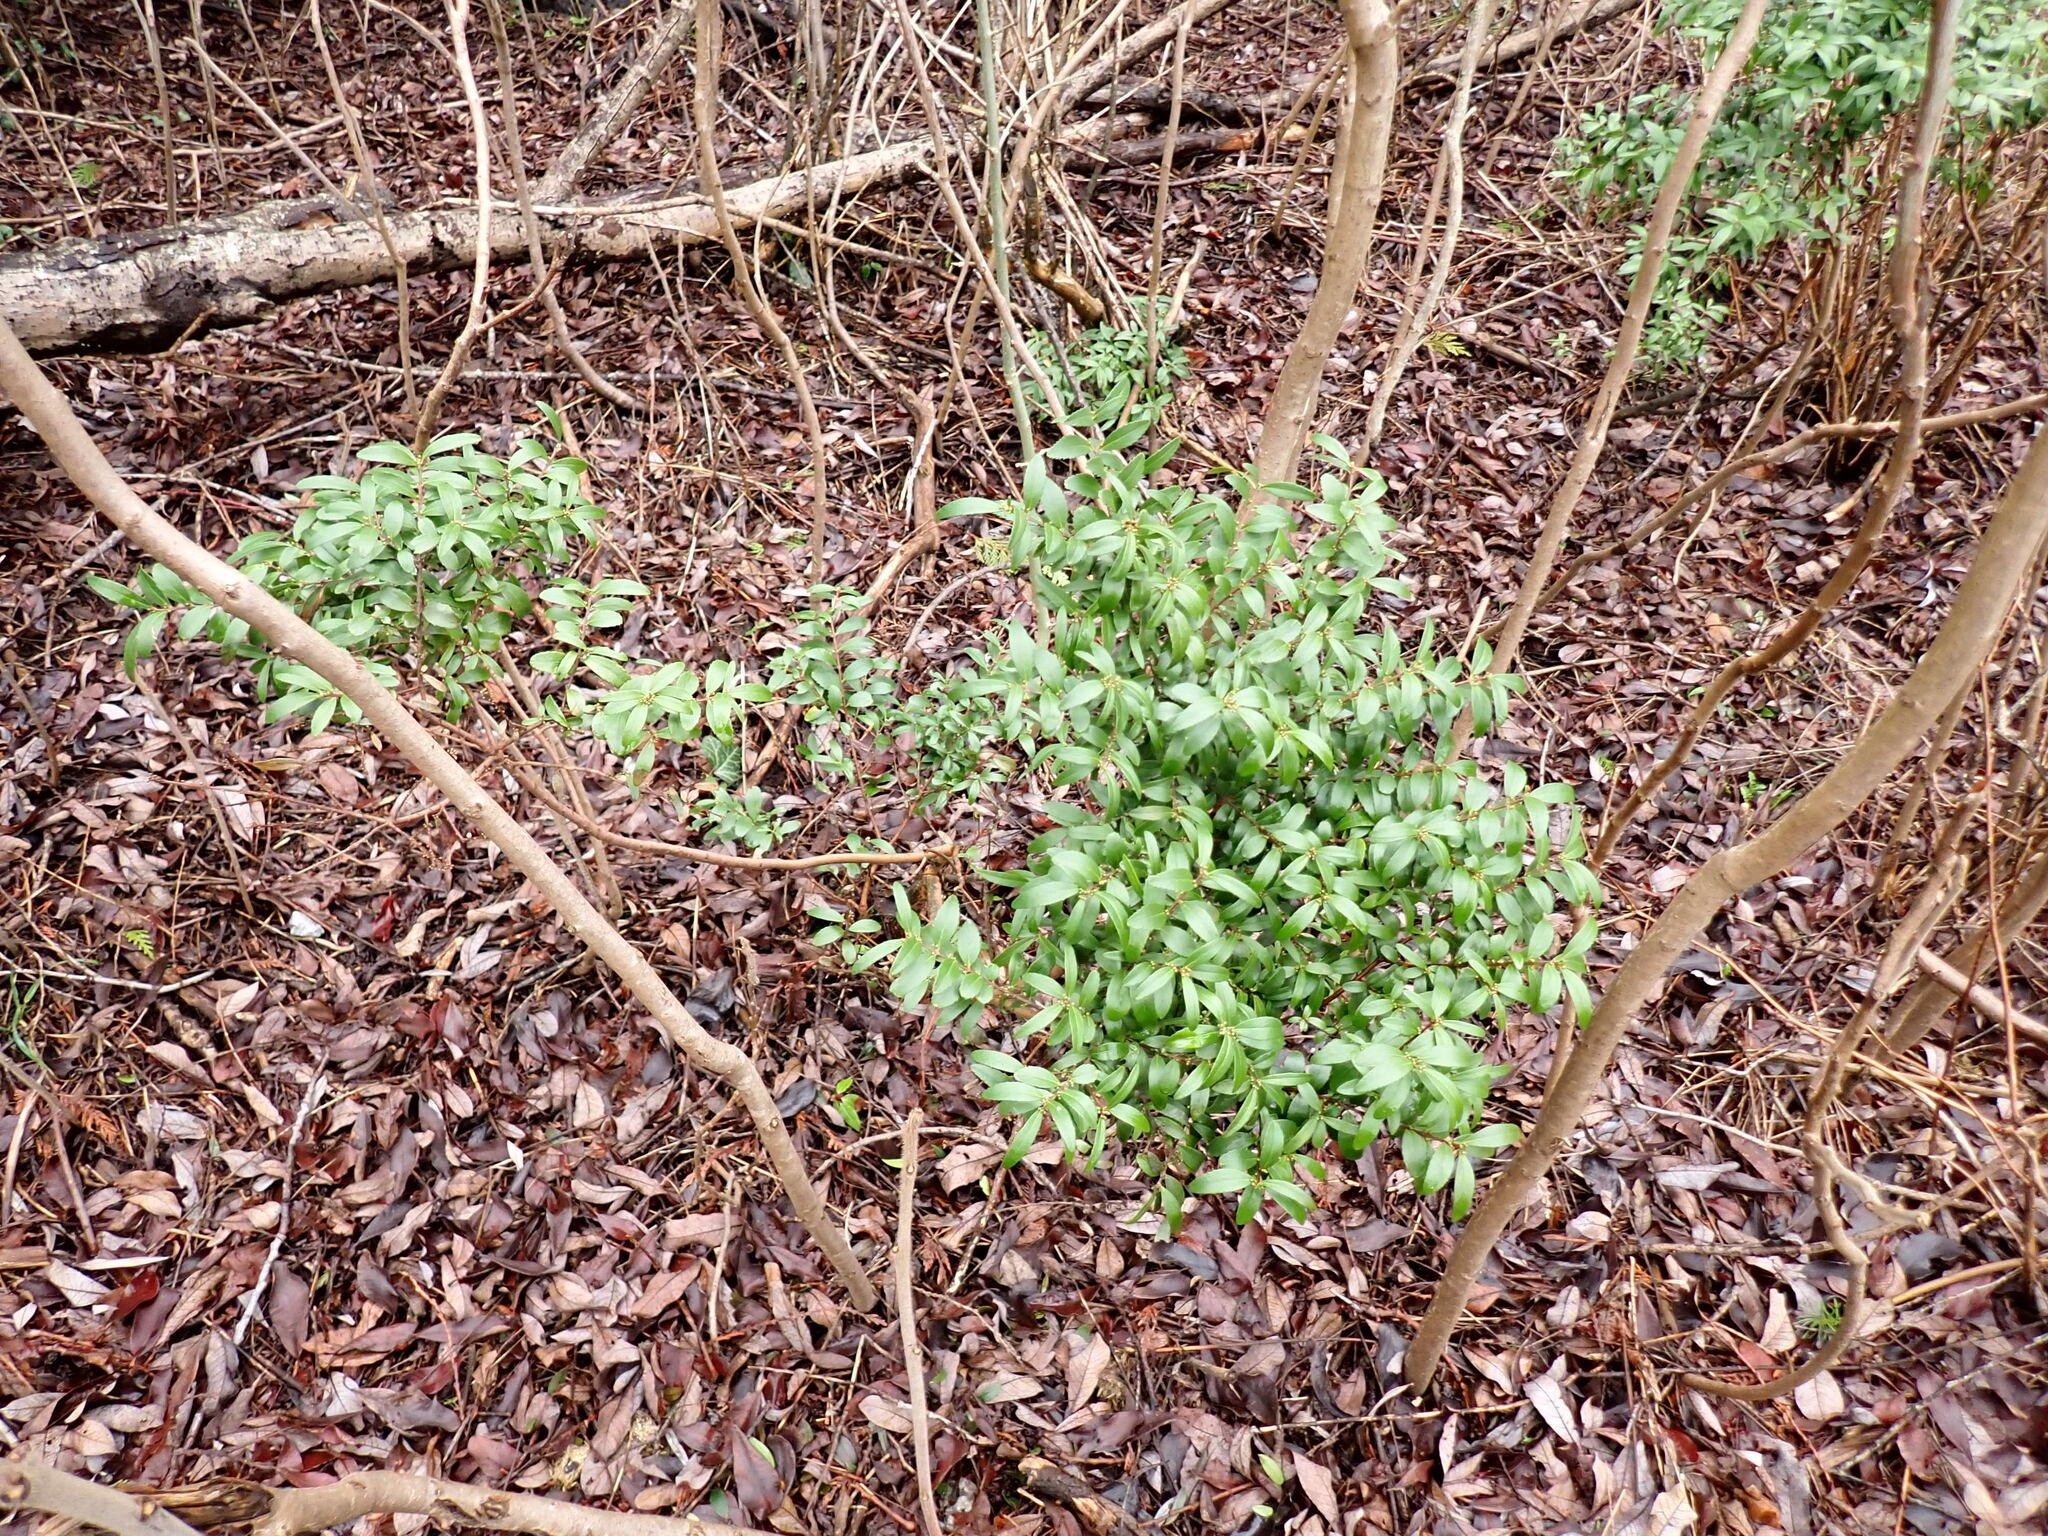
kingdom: Plantae
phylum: Tracheophyta
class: Magnoliopsida
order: Celastrales
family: Celastraceae
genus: Paxistima
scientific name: Paxistima myrsinites
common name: Mountain-lover
